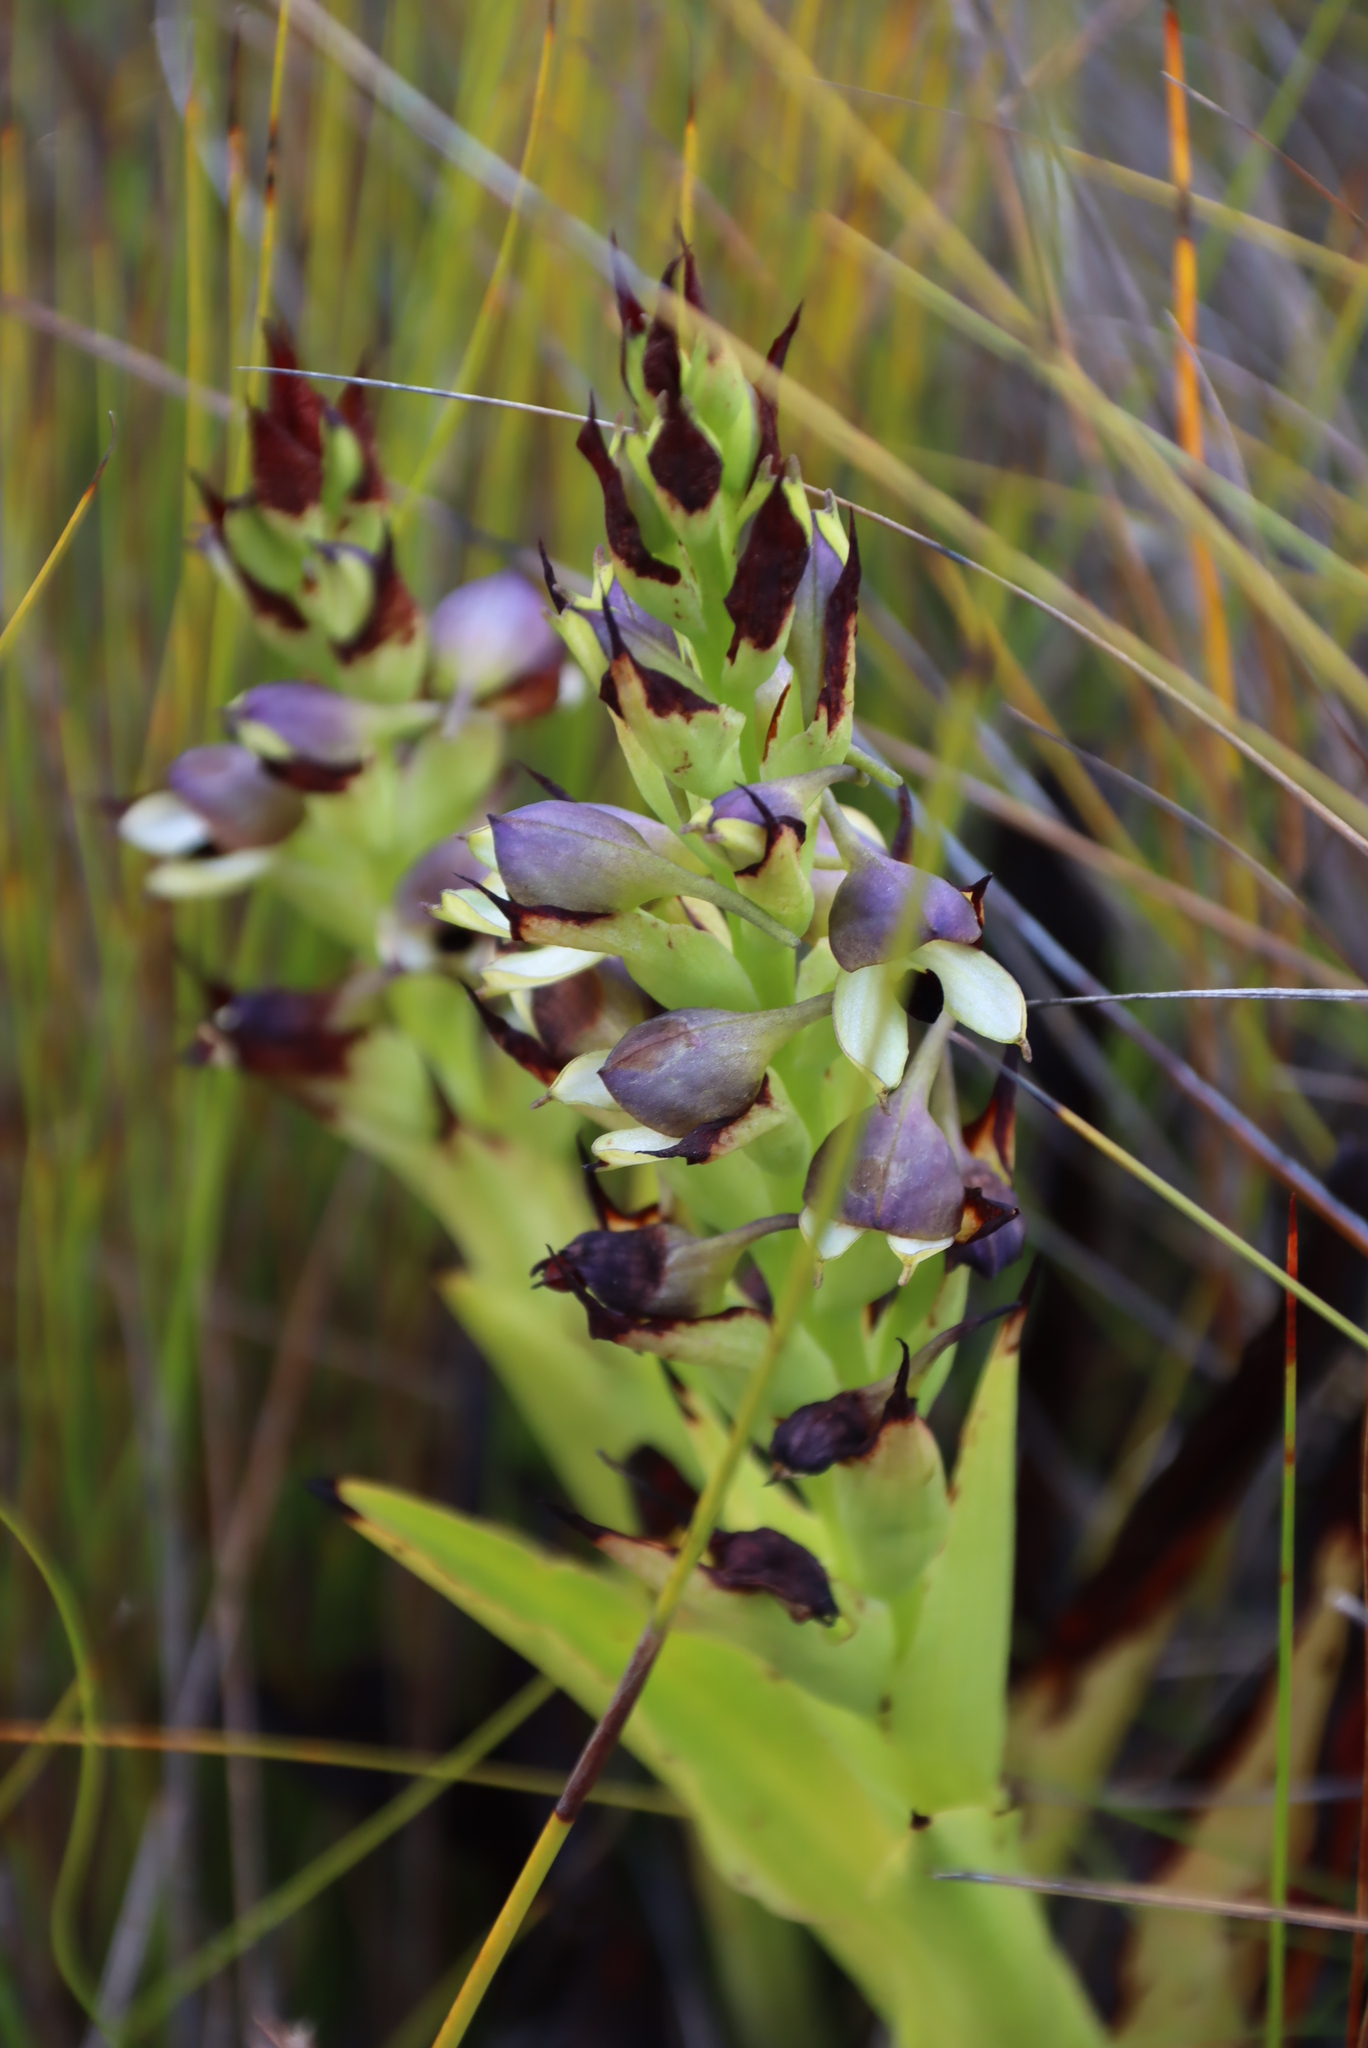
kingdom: Plantae
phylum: Tracheophyta
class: Liliopsida
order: Asparagales
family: Orchidaceae
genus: Disa
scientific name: Disa cornuta
